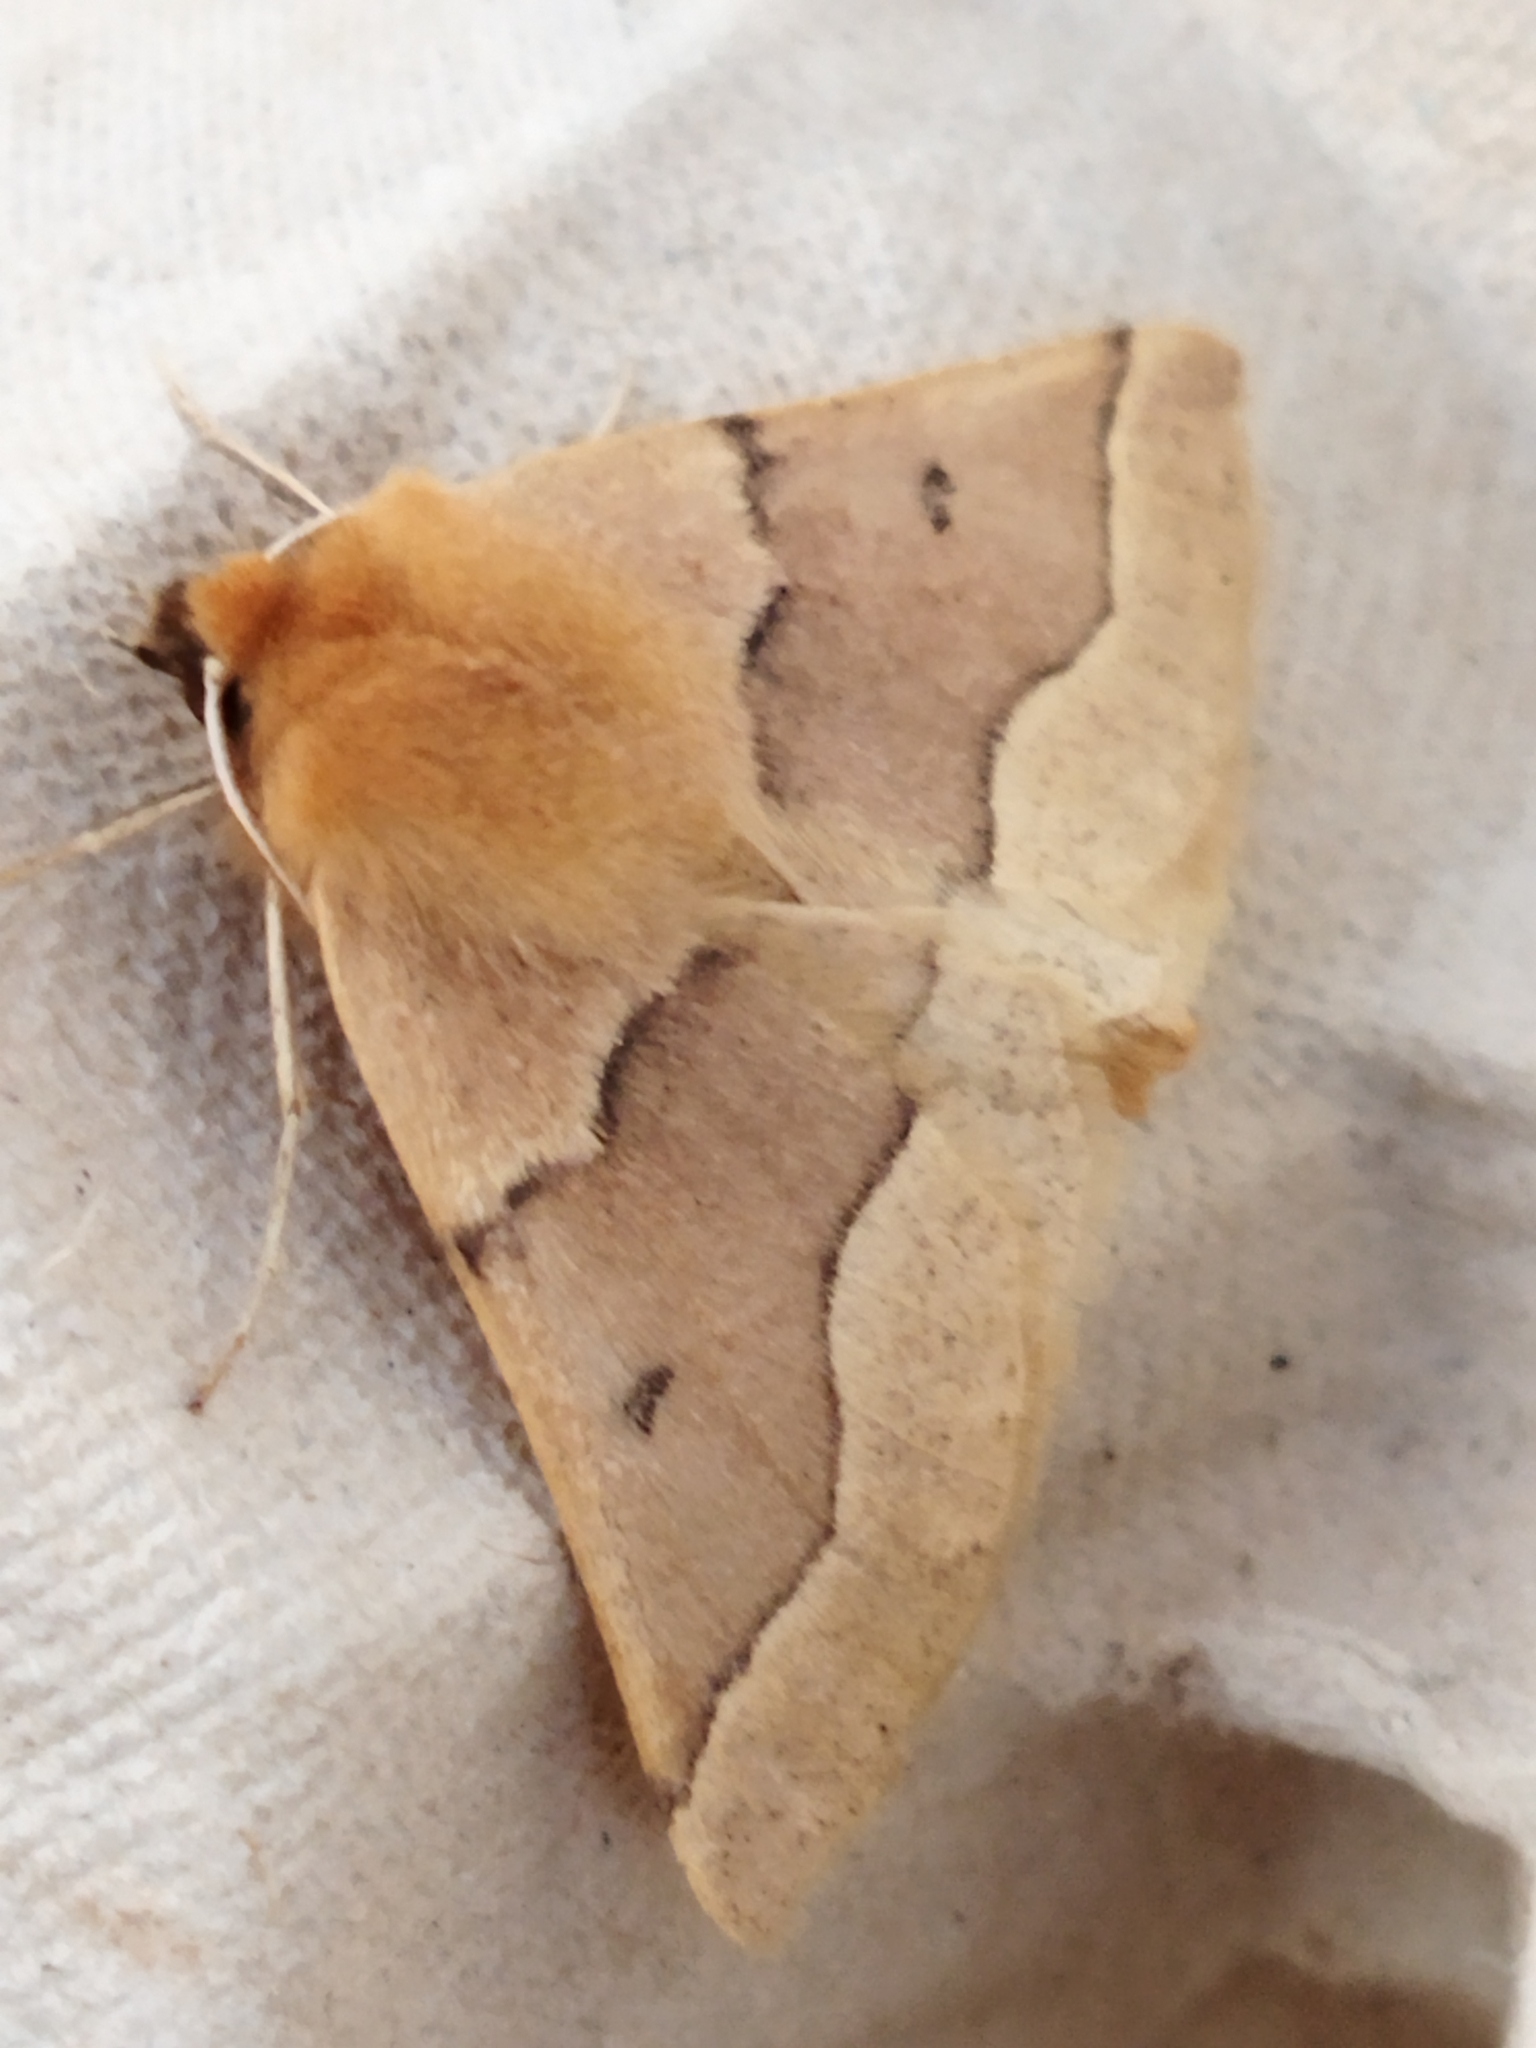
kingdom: Animalia
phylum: Arthropoda
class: Insecta
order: Lepidoptera
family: Geometridae
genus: Crocallis
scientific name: Crocallis tusciaria
